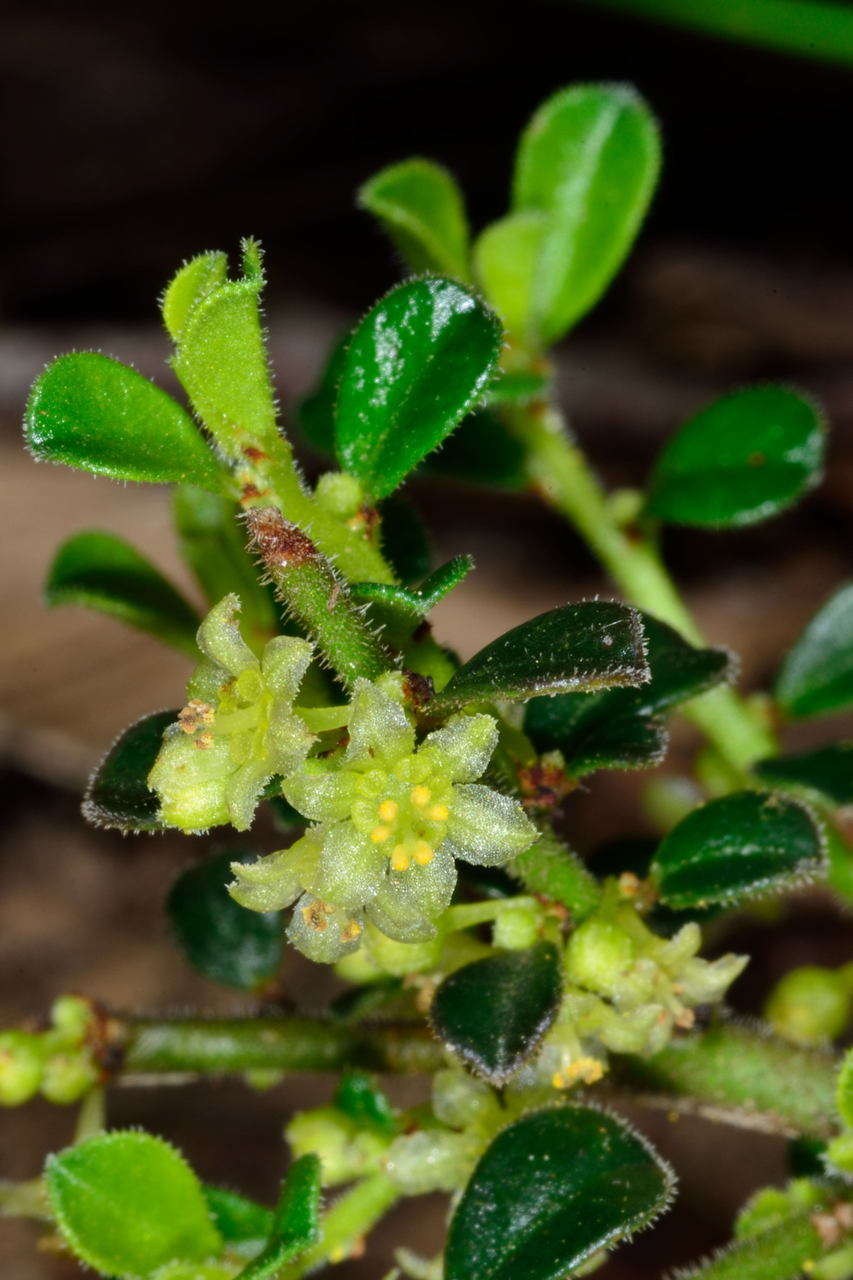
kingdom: Plantae
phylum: Tracheophyta
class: Magnoliopsida
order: Malpighiales
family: Phyllanthaceae
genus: Phyllanthus
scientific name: Phyllanthus hirtellus
